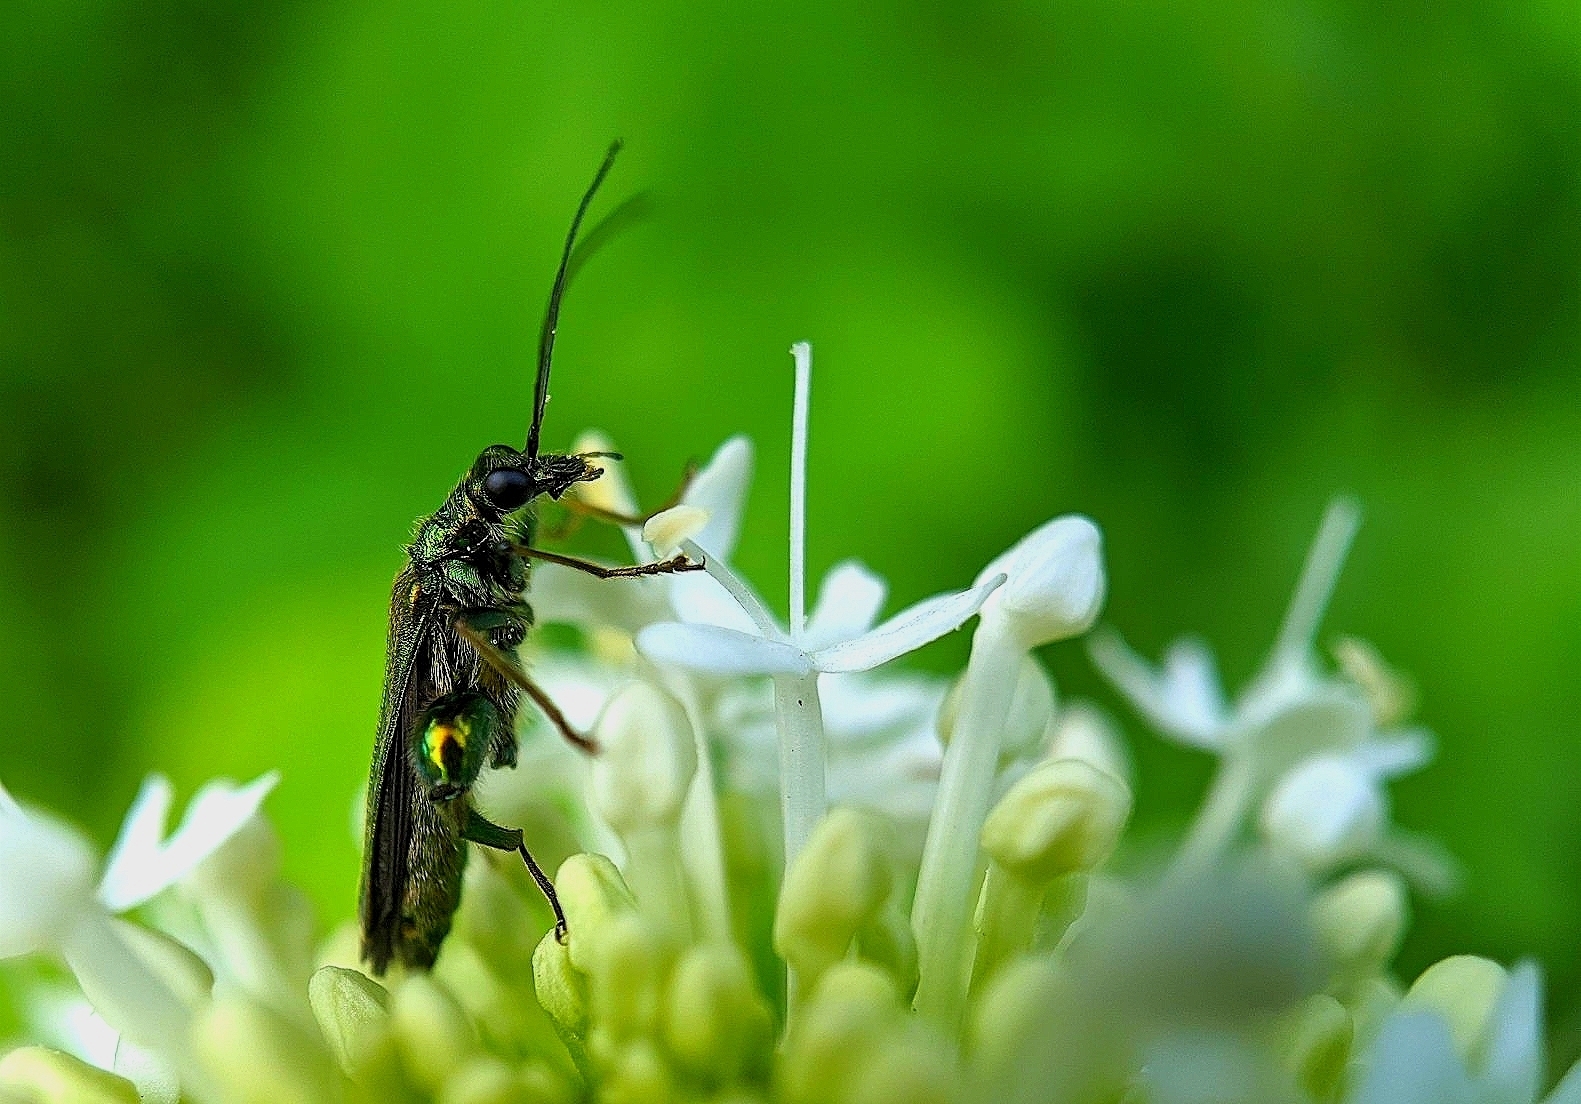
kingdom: Animalia
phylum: Arthropoda
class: Insecta
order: Coleoptera
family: Oedemeridae
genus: Oedemera
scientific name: Oedemera nobilis
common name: Swollen-thighed beetle
